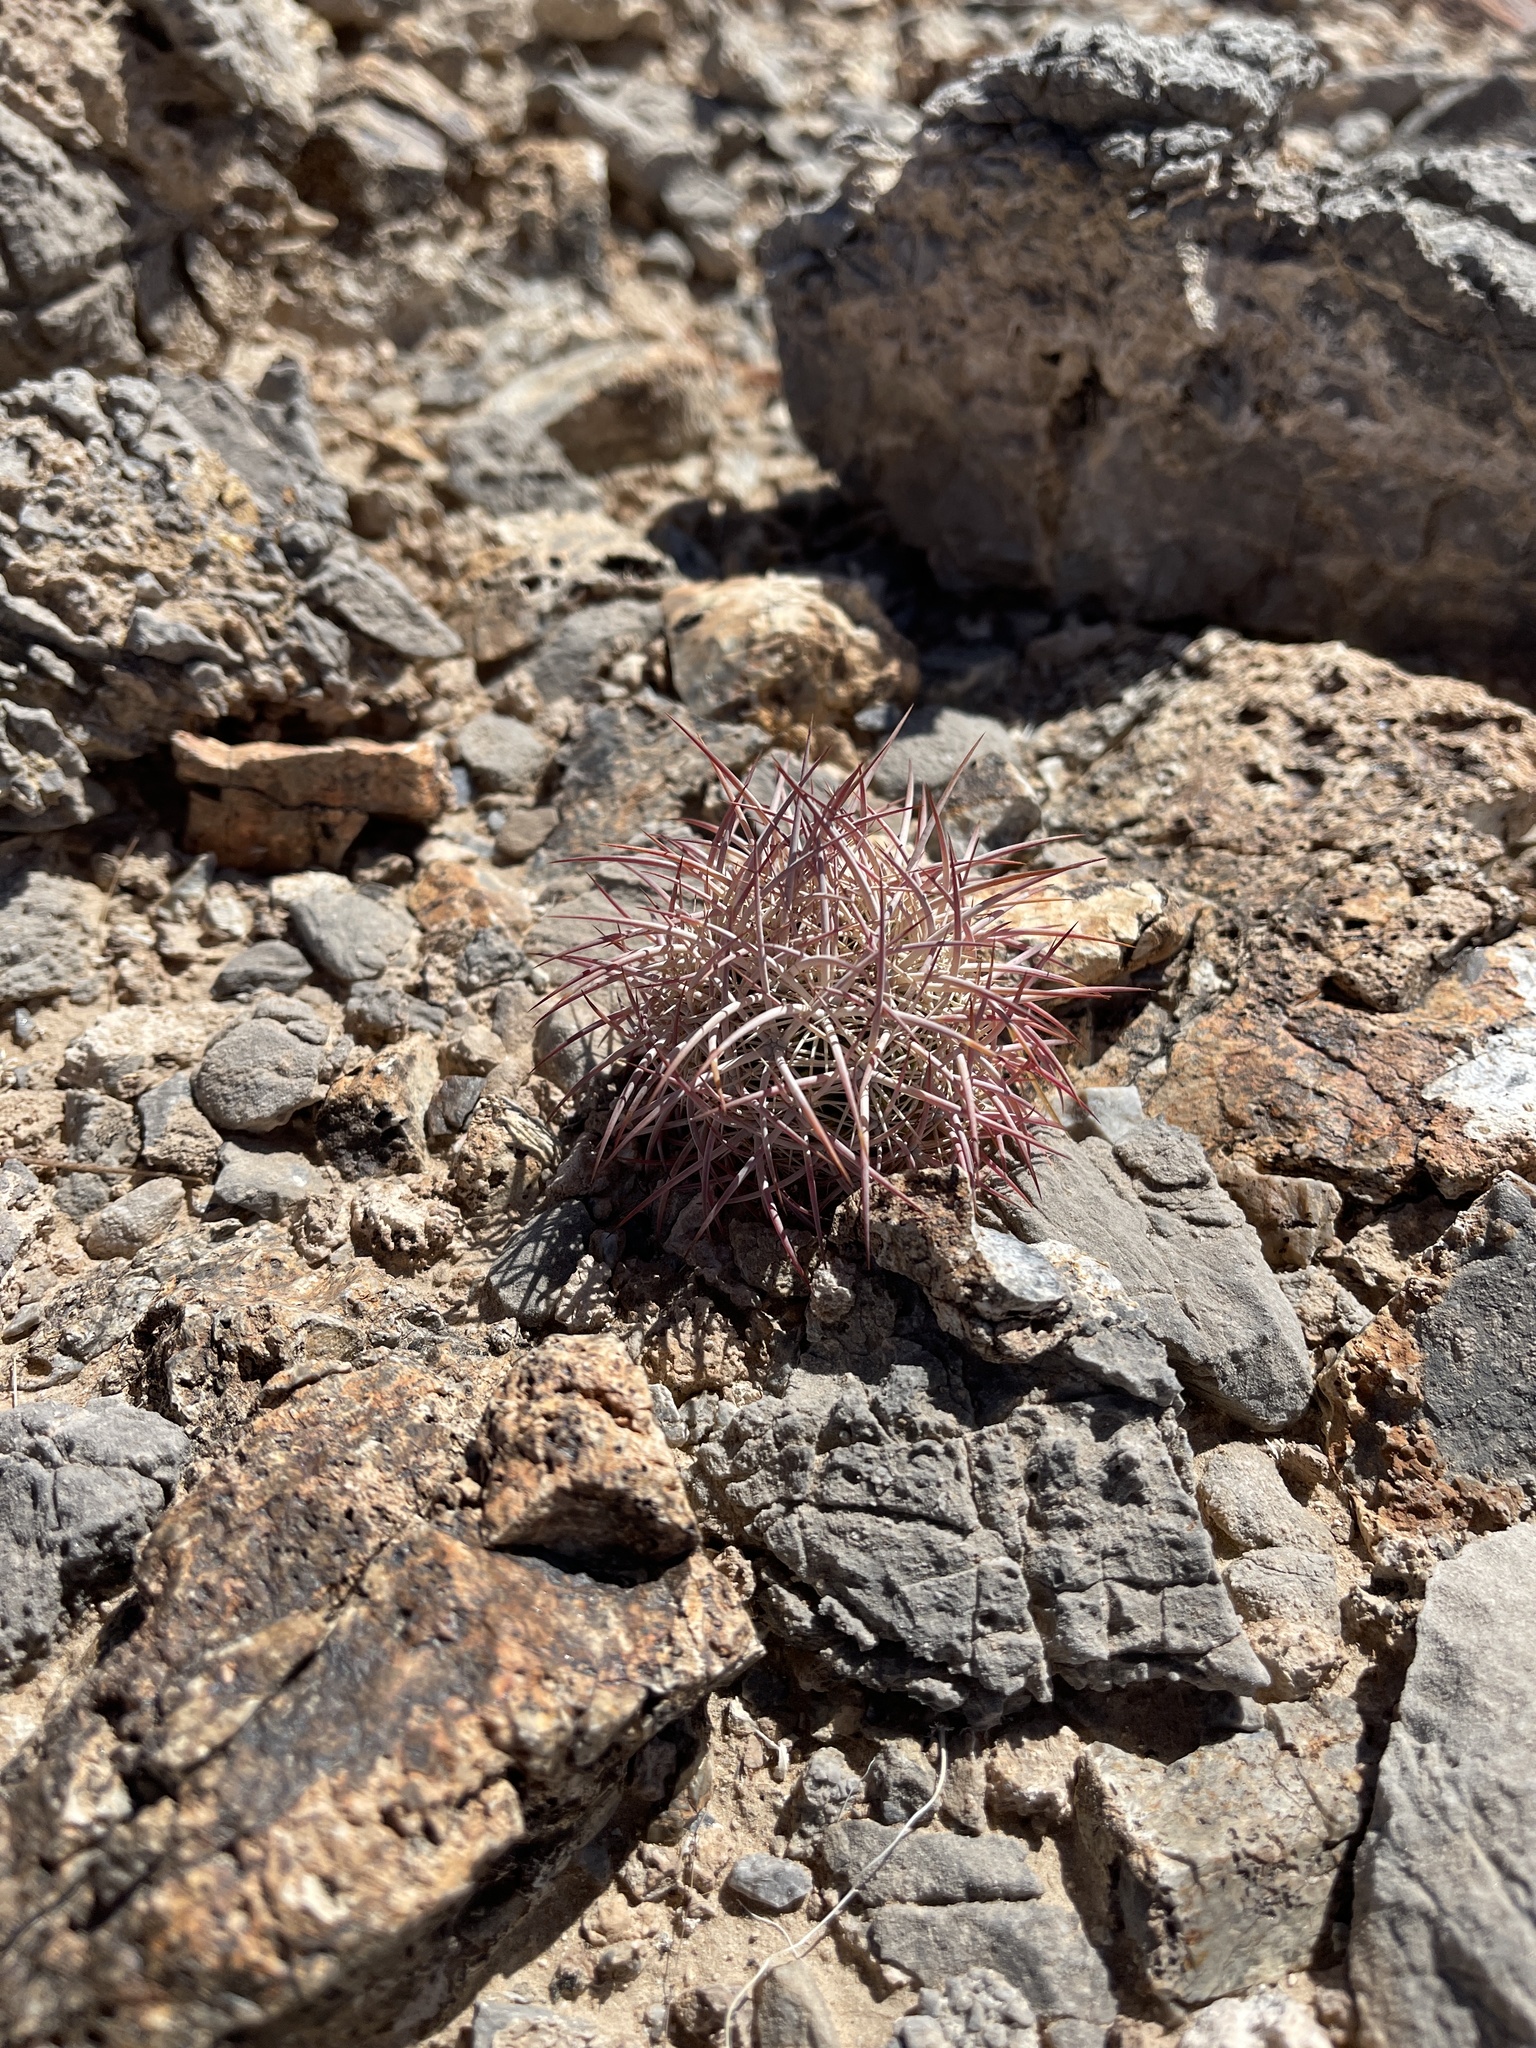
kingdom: Plantae
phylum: Tracheophyta
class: Magnoliopsida
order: Caryophyllales
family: Cactaceae
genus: Sclerocactus
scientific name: Sclerocactus johnsonii
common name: Eight-spine fishhook cactus
